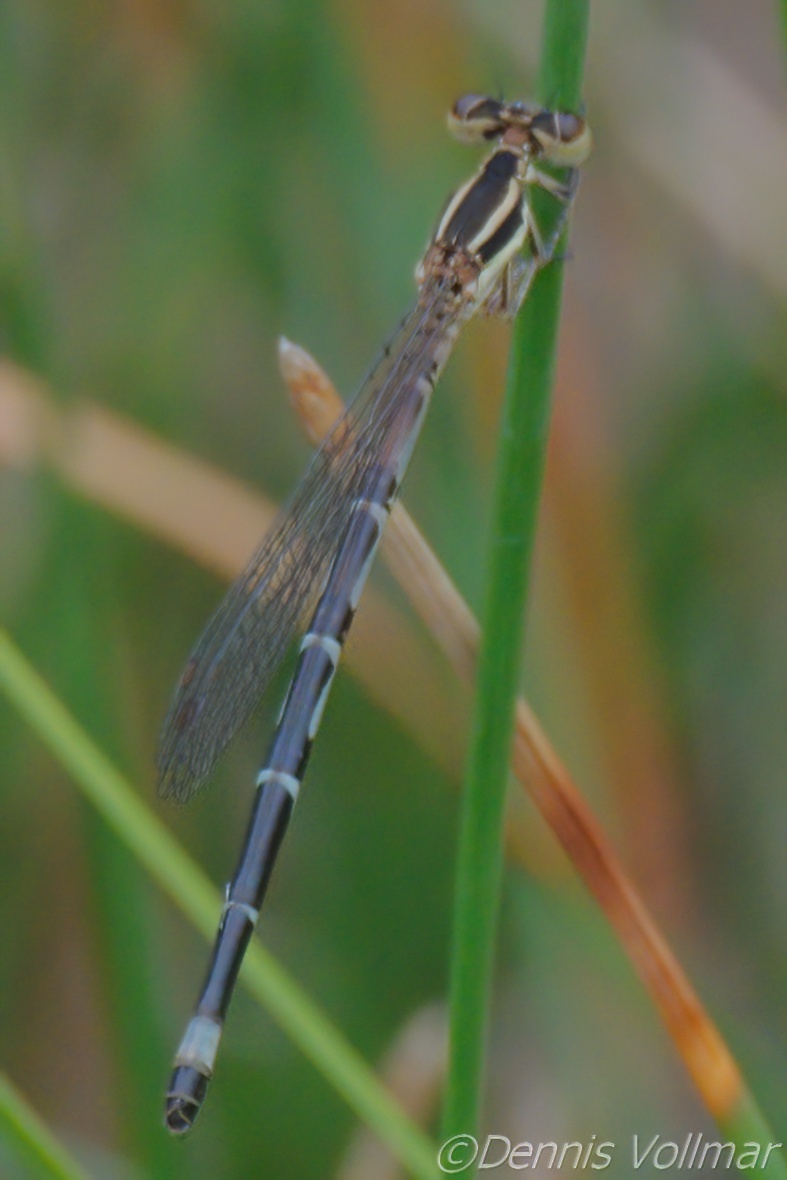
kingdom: Animalia
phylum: Arthropoda
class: Insecta
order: Odonata
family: Coenagrionidae
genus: Argia
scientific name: Argia bipunctulata
